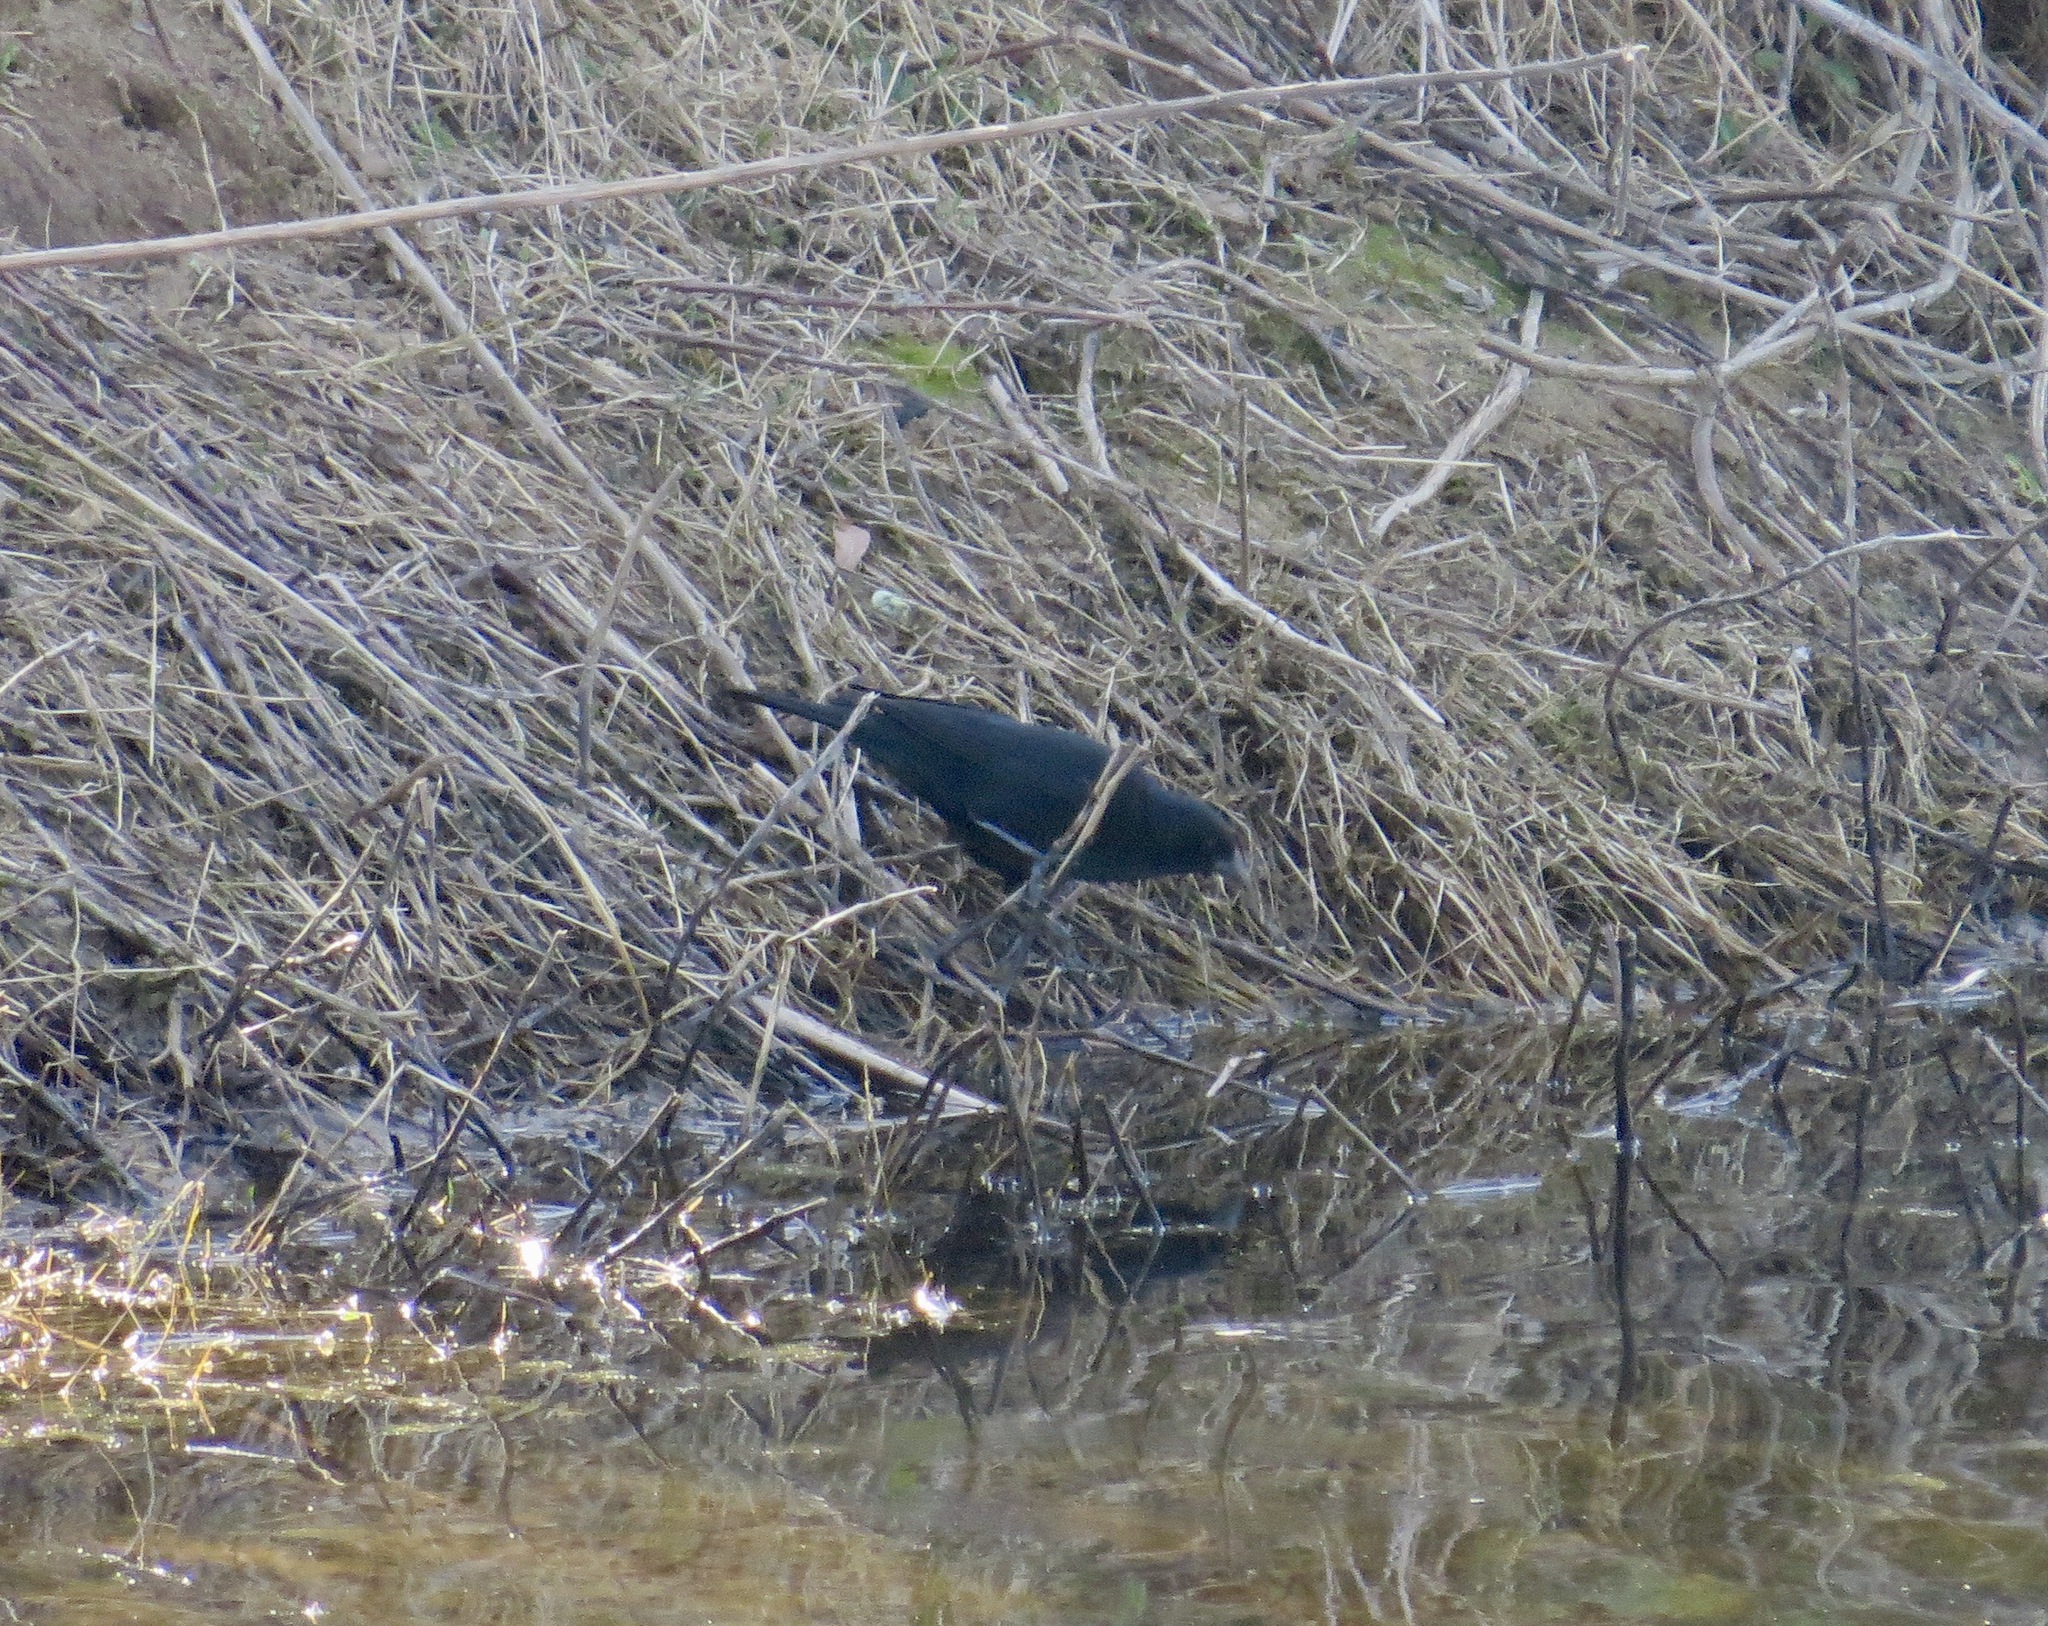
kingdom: Animalia
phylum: Chordata
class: Aves
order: Passeriformes
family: Icteridae
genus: Agelaius
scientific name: Agelaius phoeniceus
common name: Red-winged blackbird
